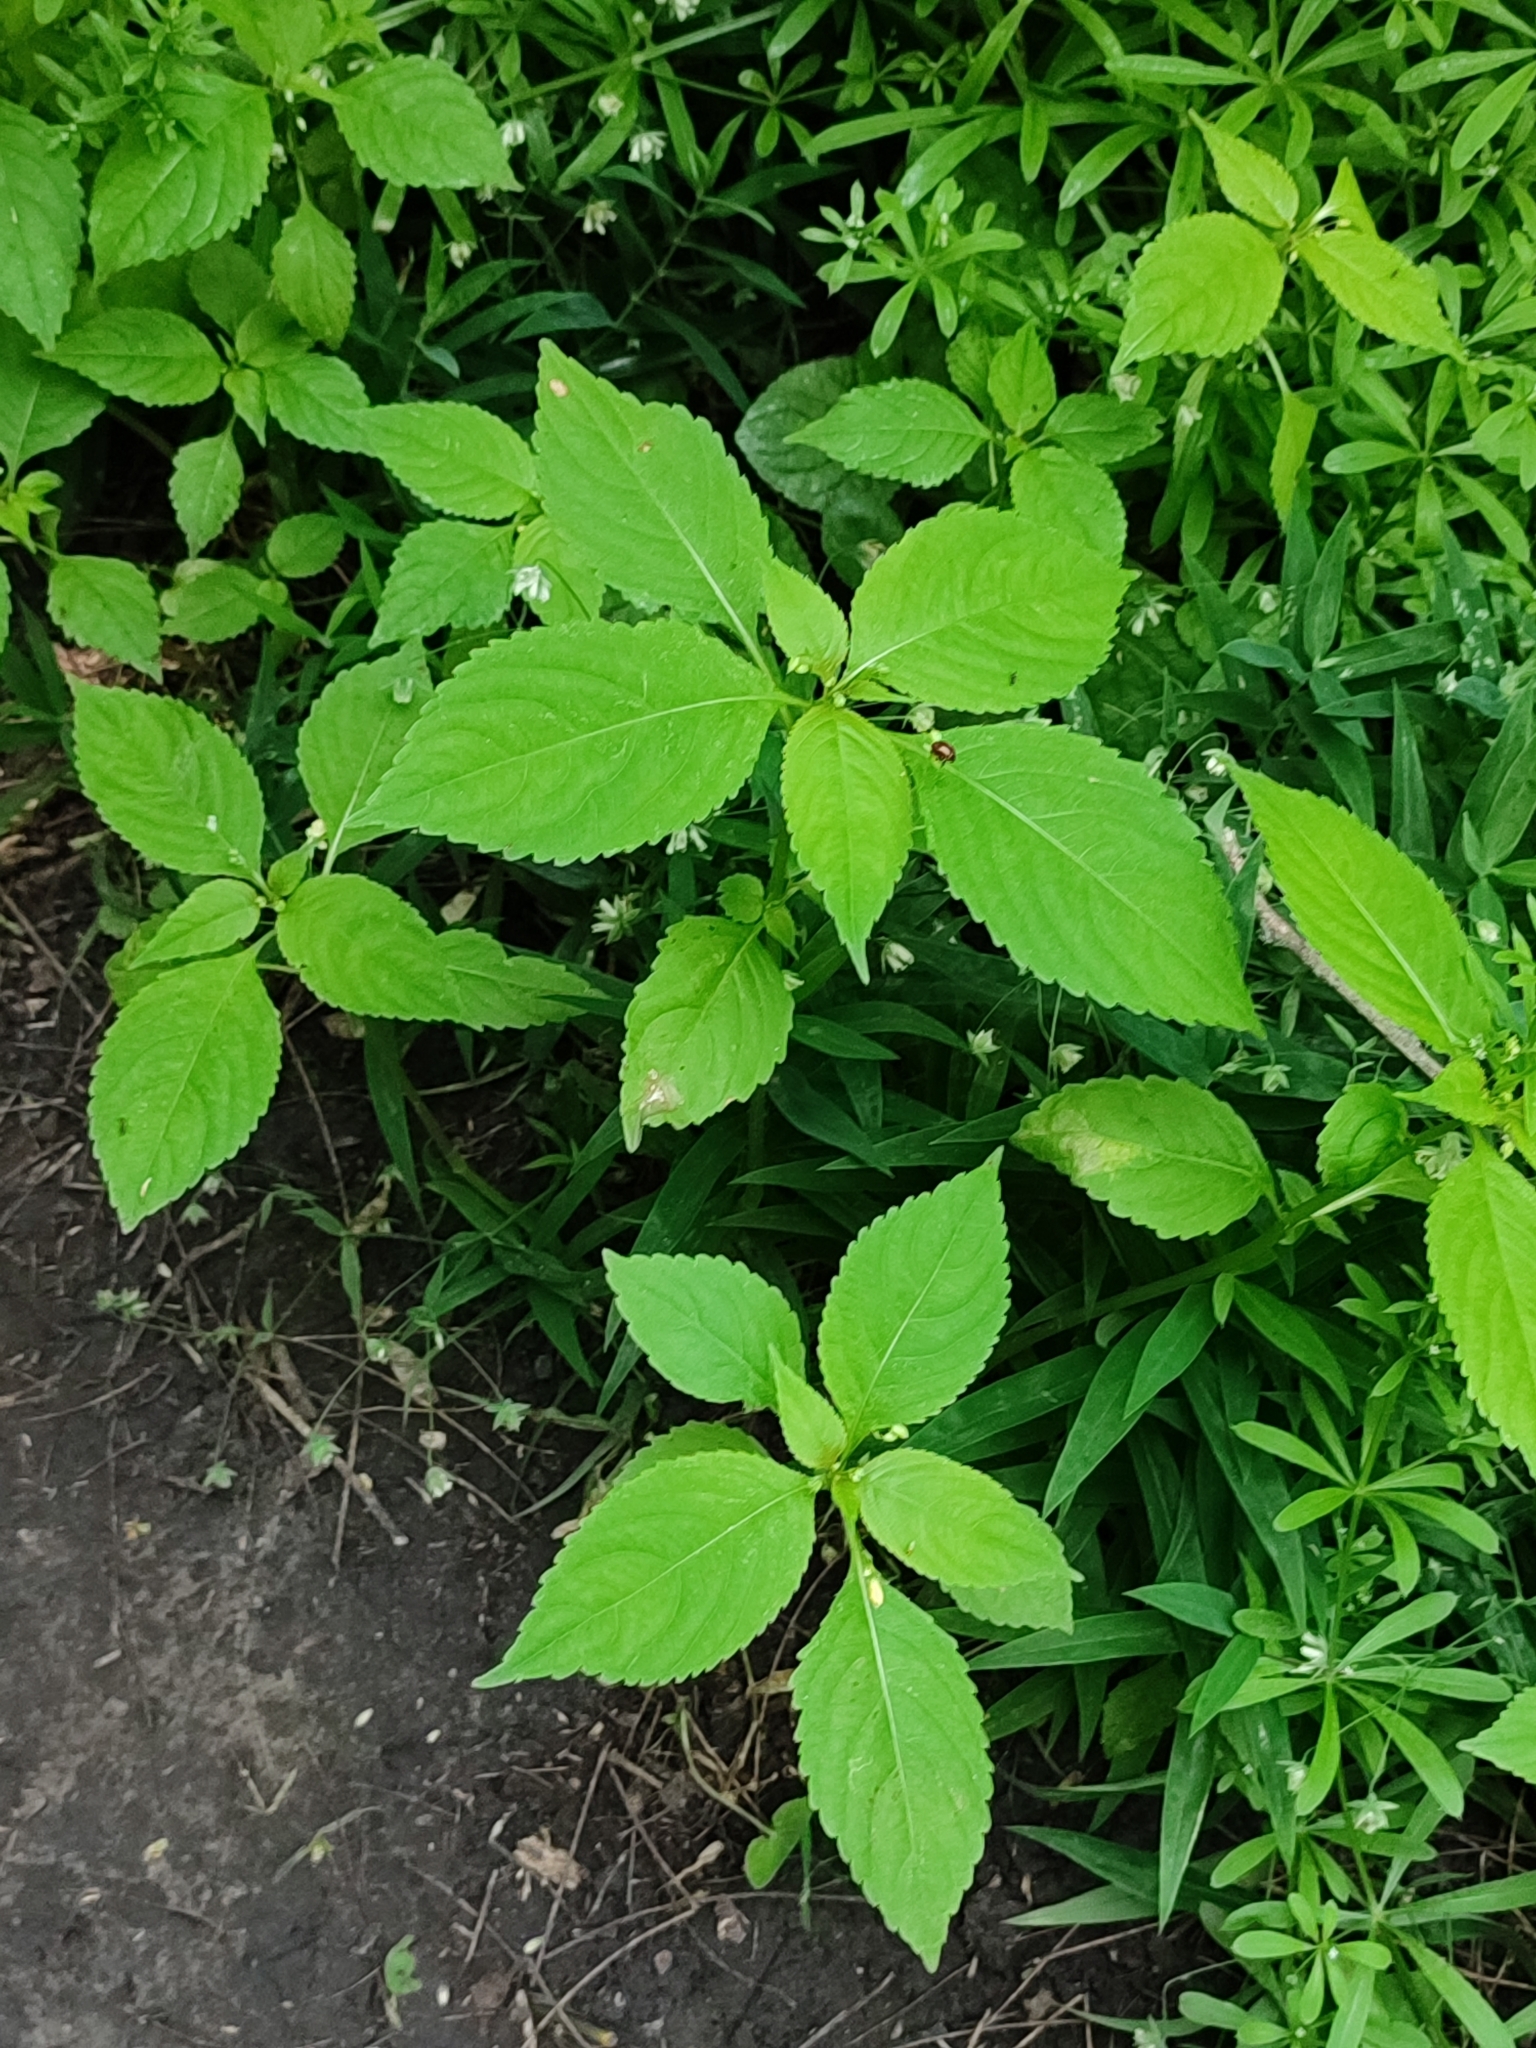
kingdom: Plantae
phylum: Tracheophyta
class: Magnoliopsida
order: Ericales
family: Balsaminaceae
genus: Impatiens
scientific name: Impatiens parviflora
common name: Small balsam
